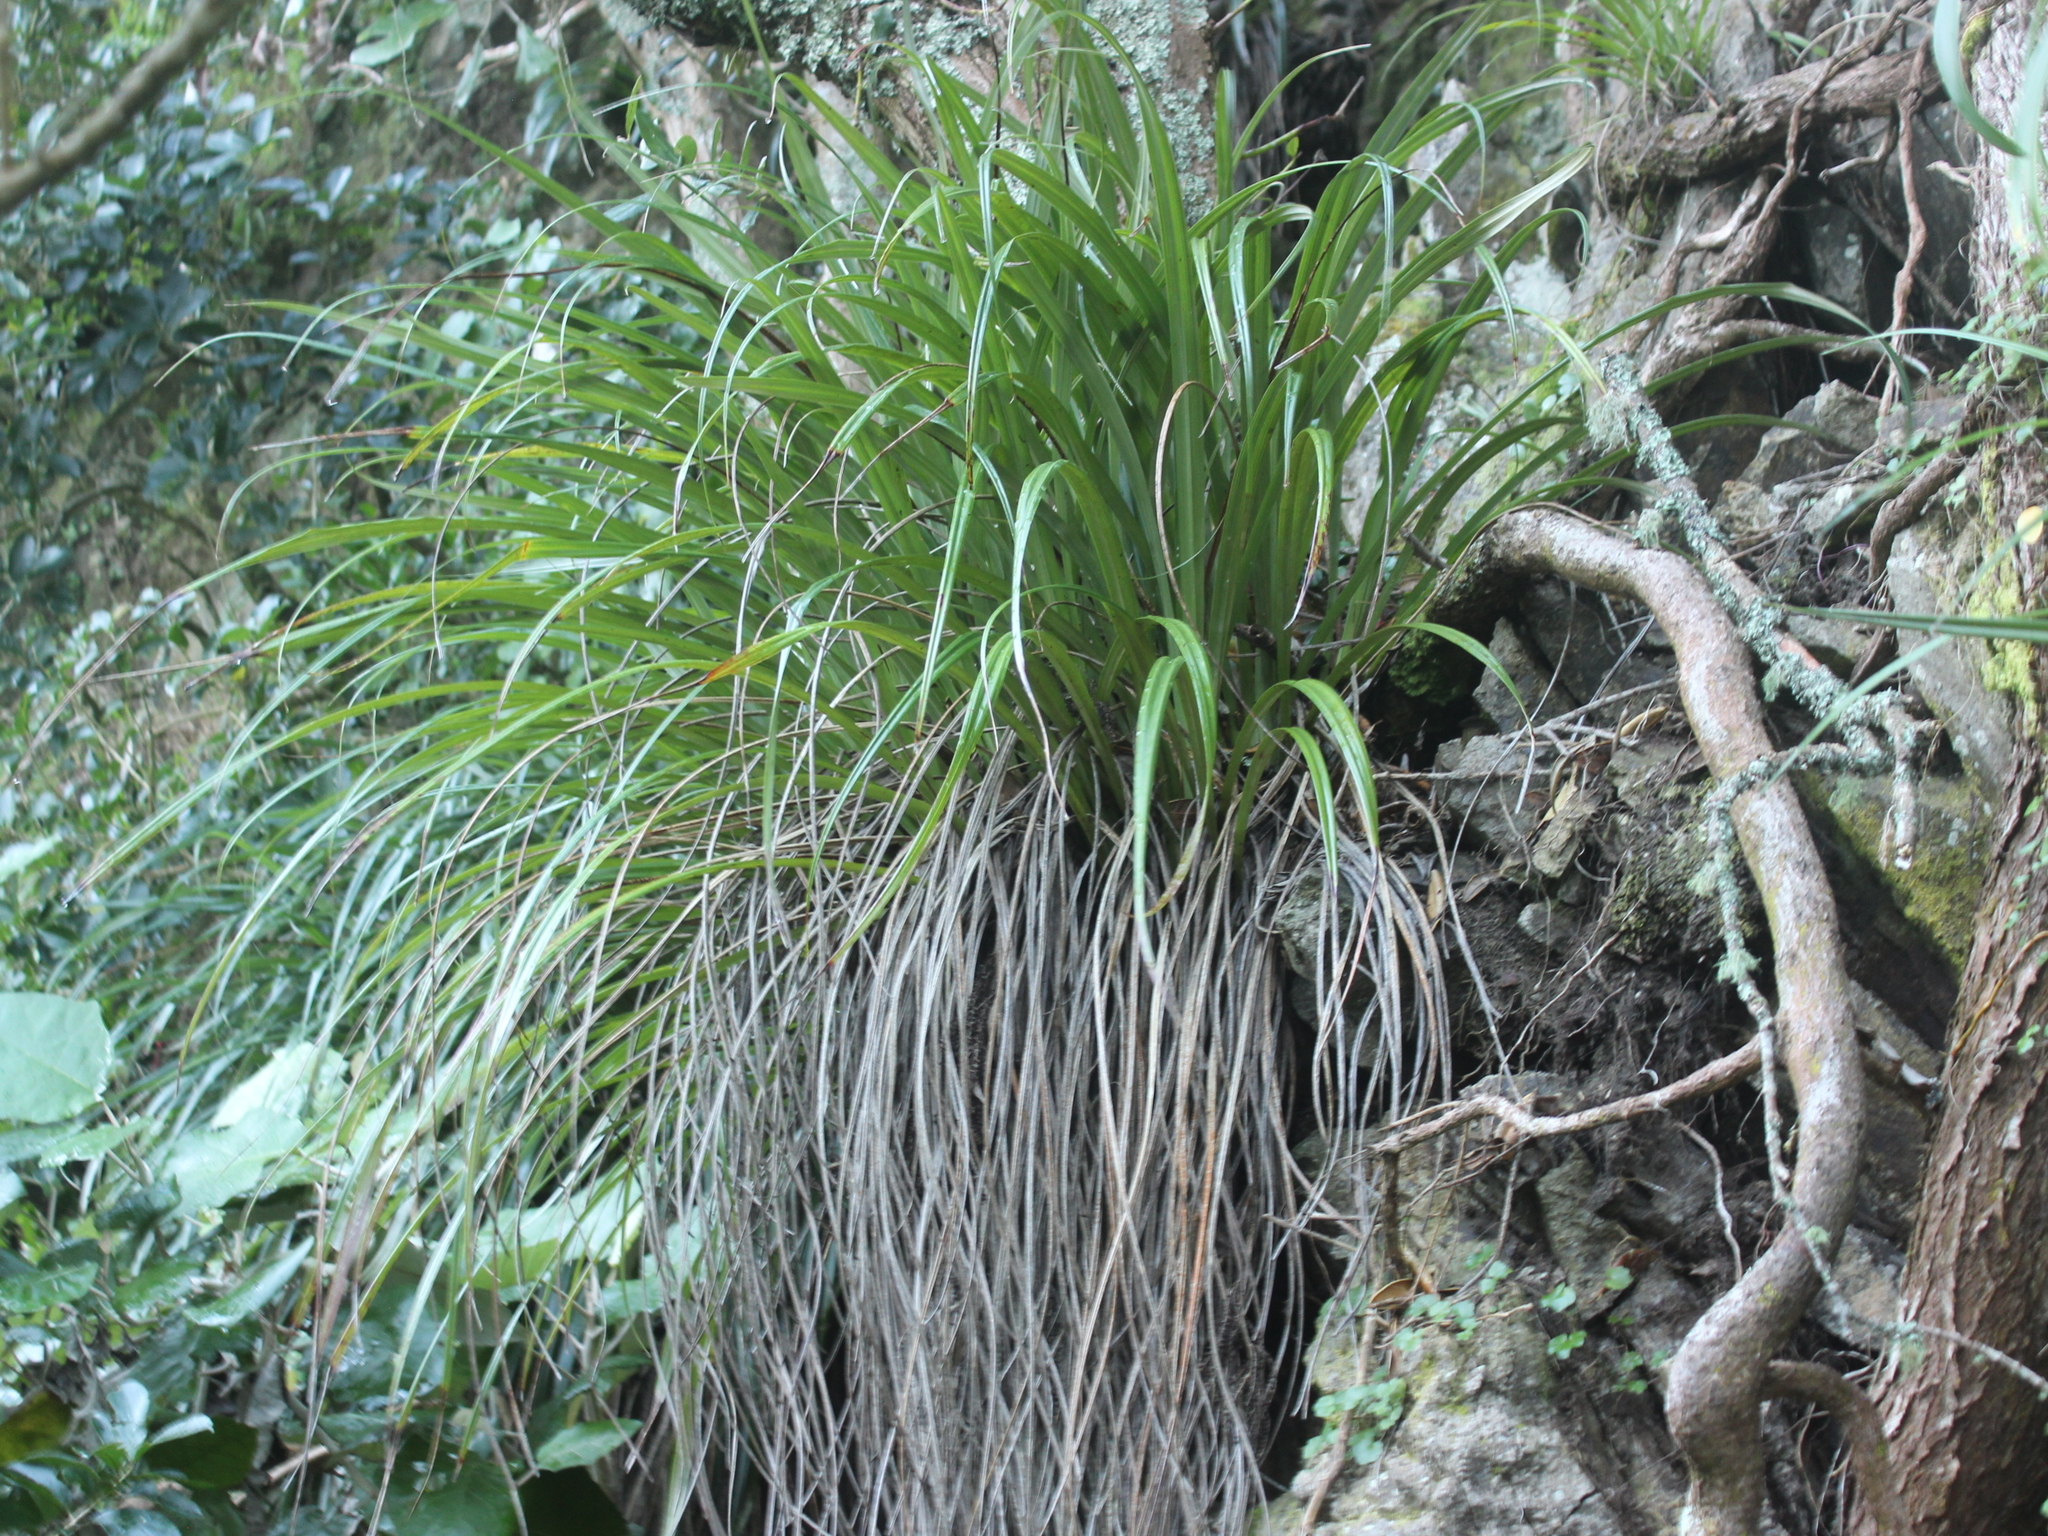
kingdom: Plantae
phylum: Tracheophyta
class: Liliopsida
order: Asparagales
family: Asteliaceae
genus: Astelia
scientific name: Astelia solandri
